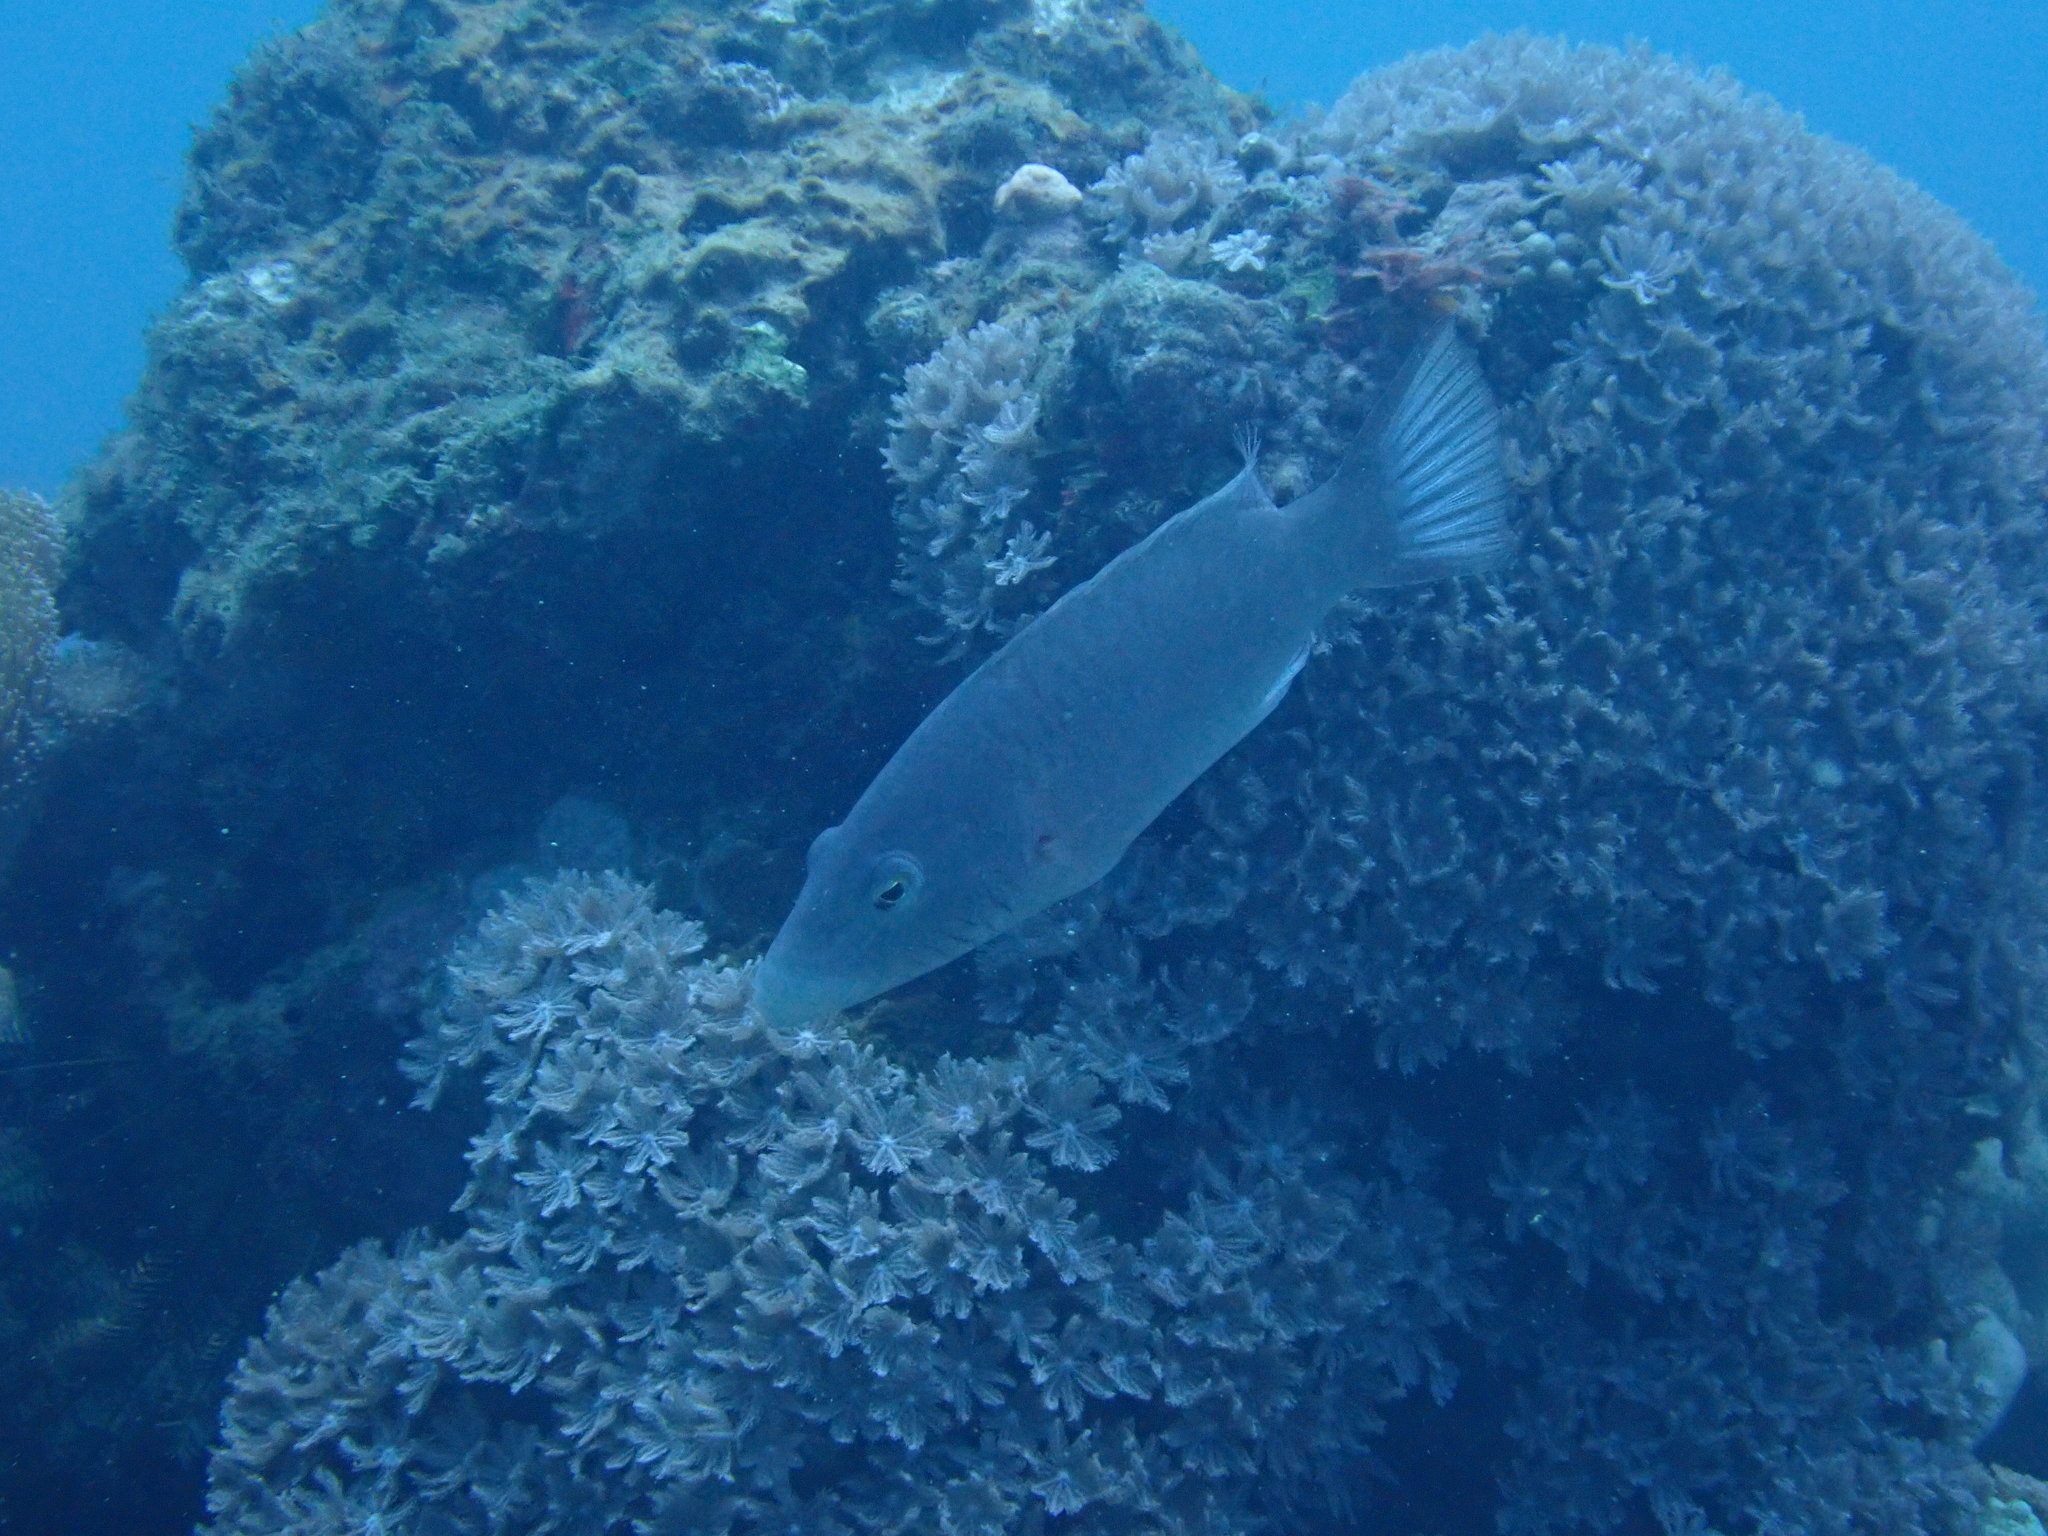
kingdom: Animalia
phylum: Chordata
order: Perciformes
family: Labridae
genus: Oxycheilinus
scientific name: Oxycheilinus digramma
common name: Bandcheek wrasse
